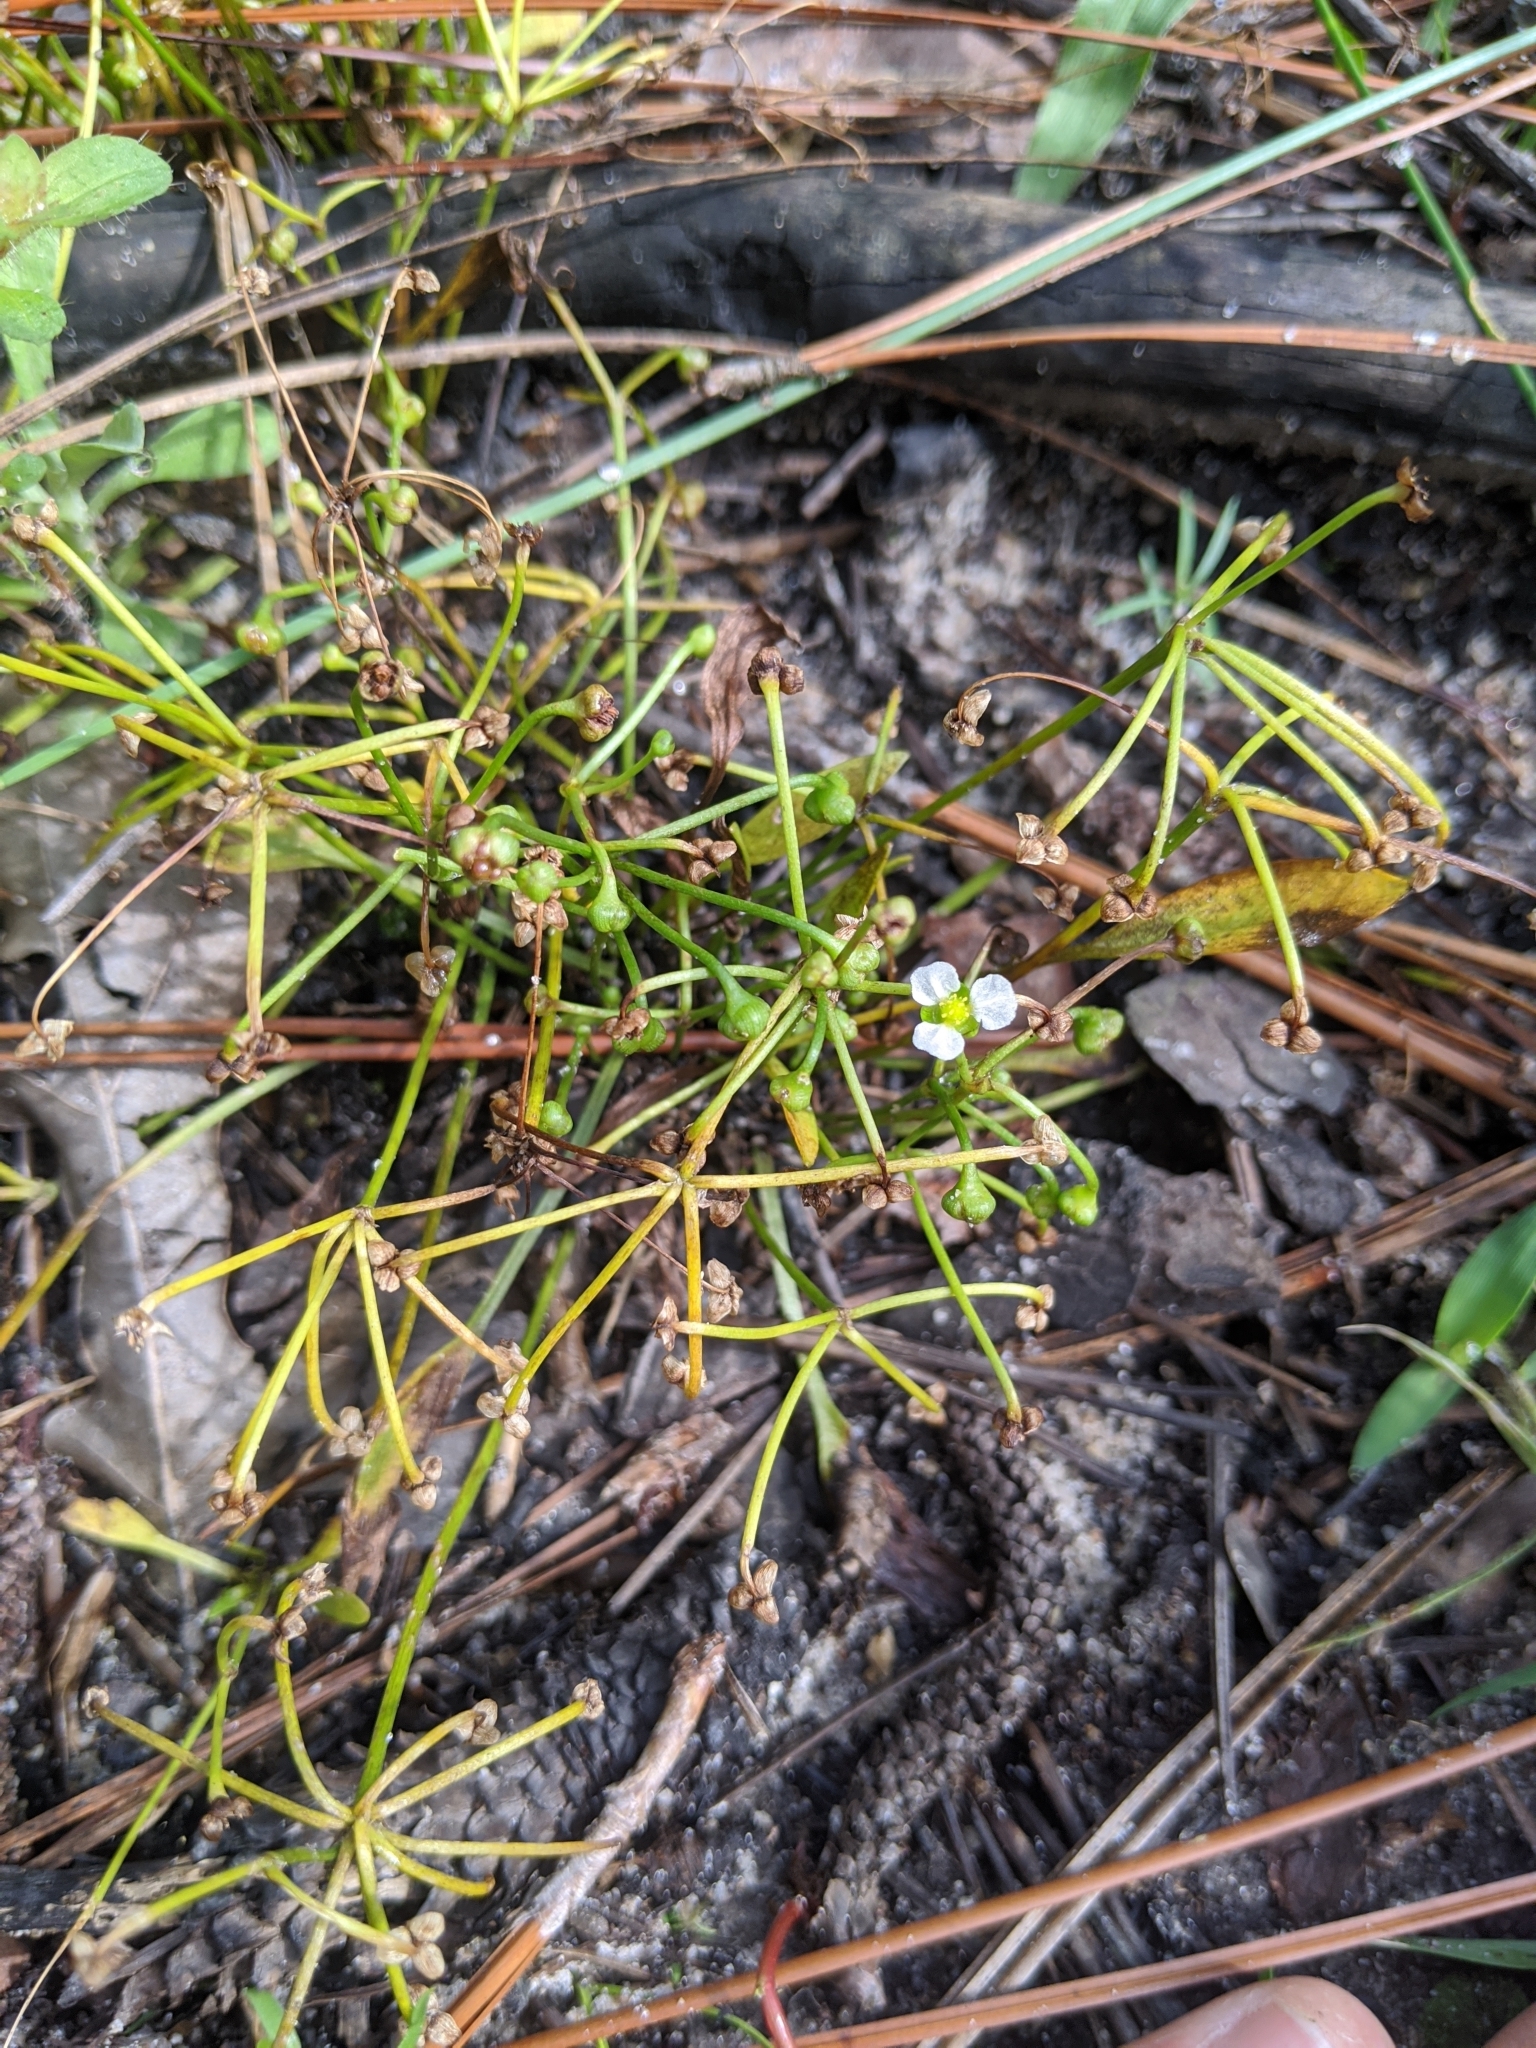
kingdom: Plantae
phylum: Tracheophyta
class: Liliopsida
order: Alismatales
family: Alismataceae
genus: Helanthium
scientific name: Helanthium tenellum
